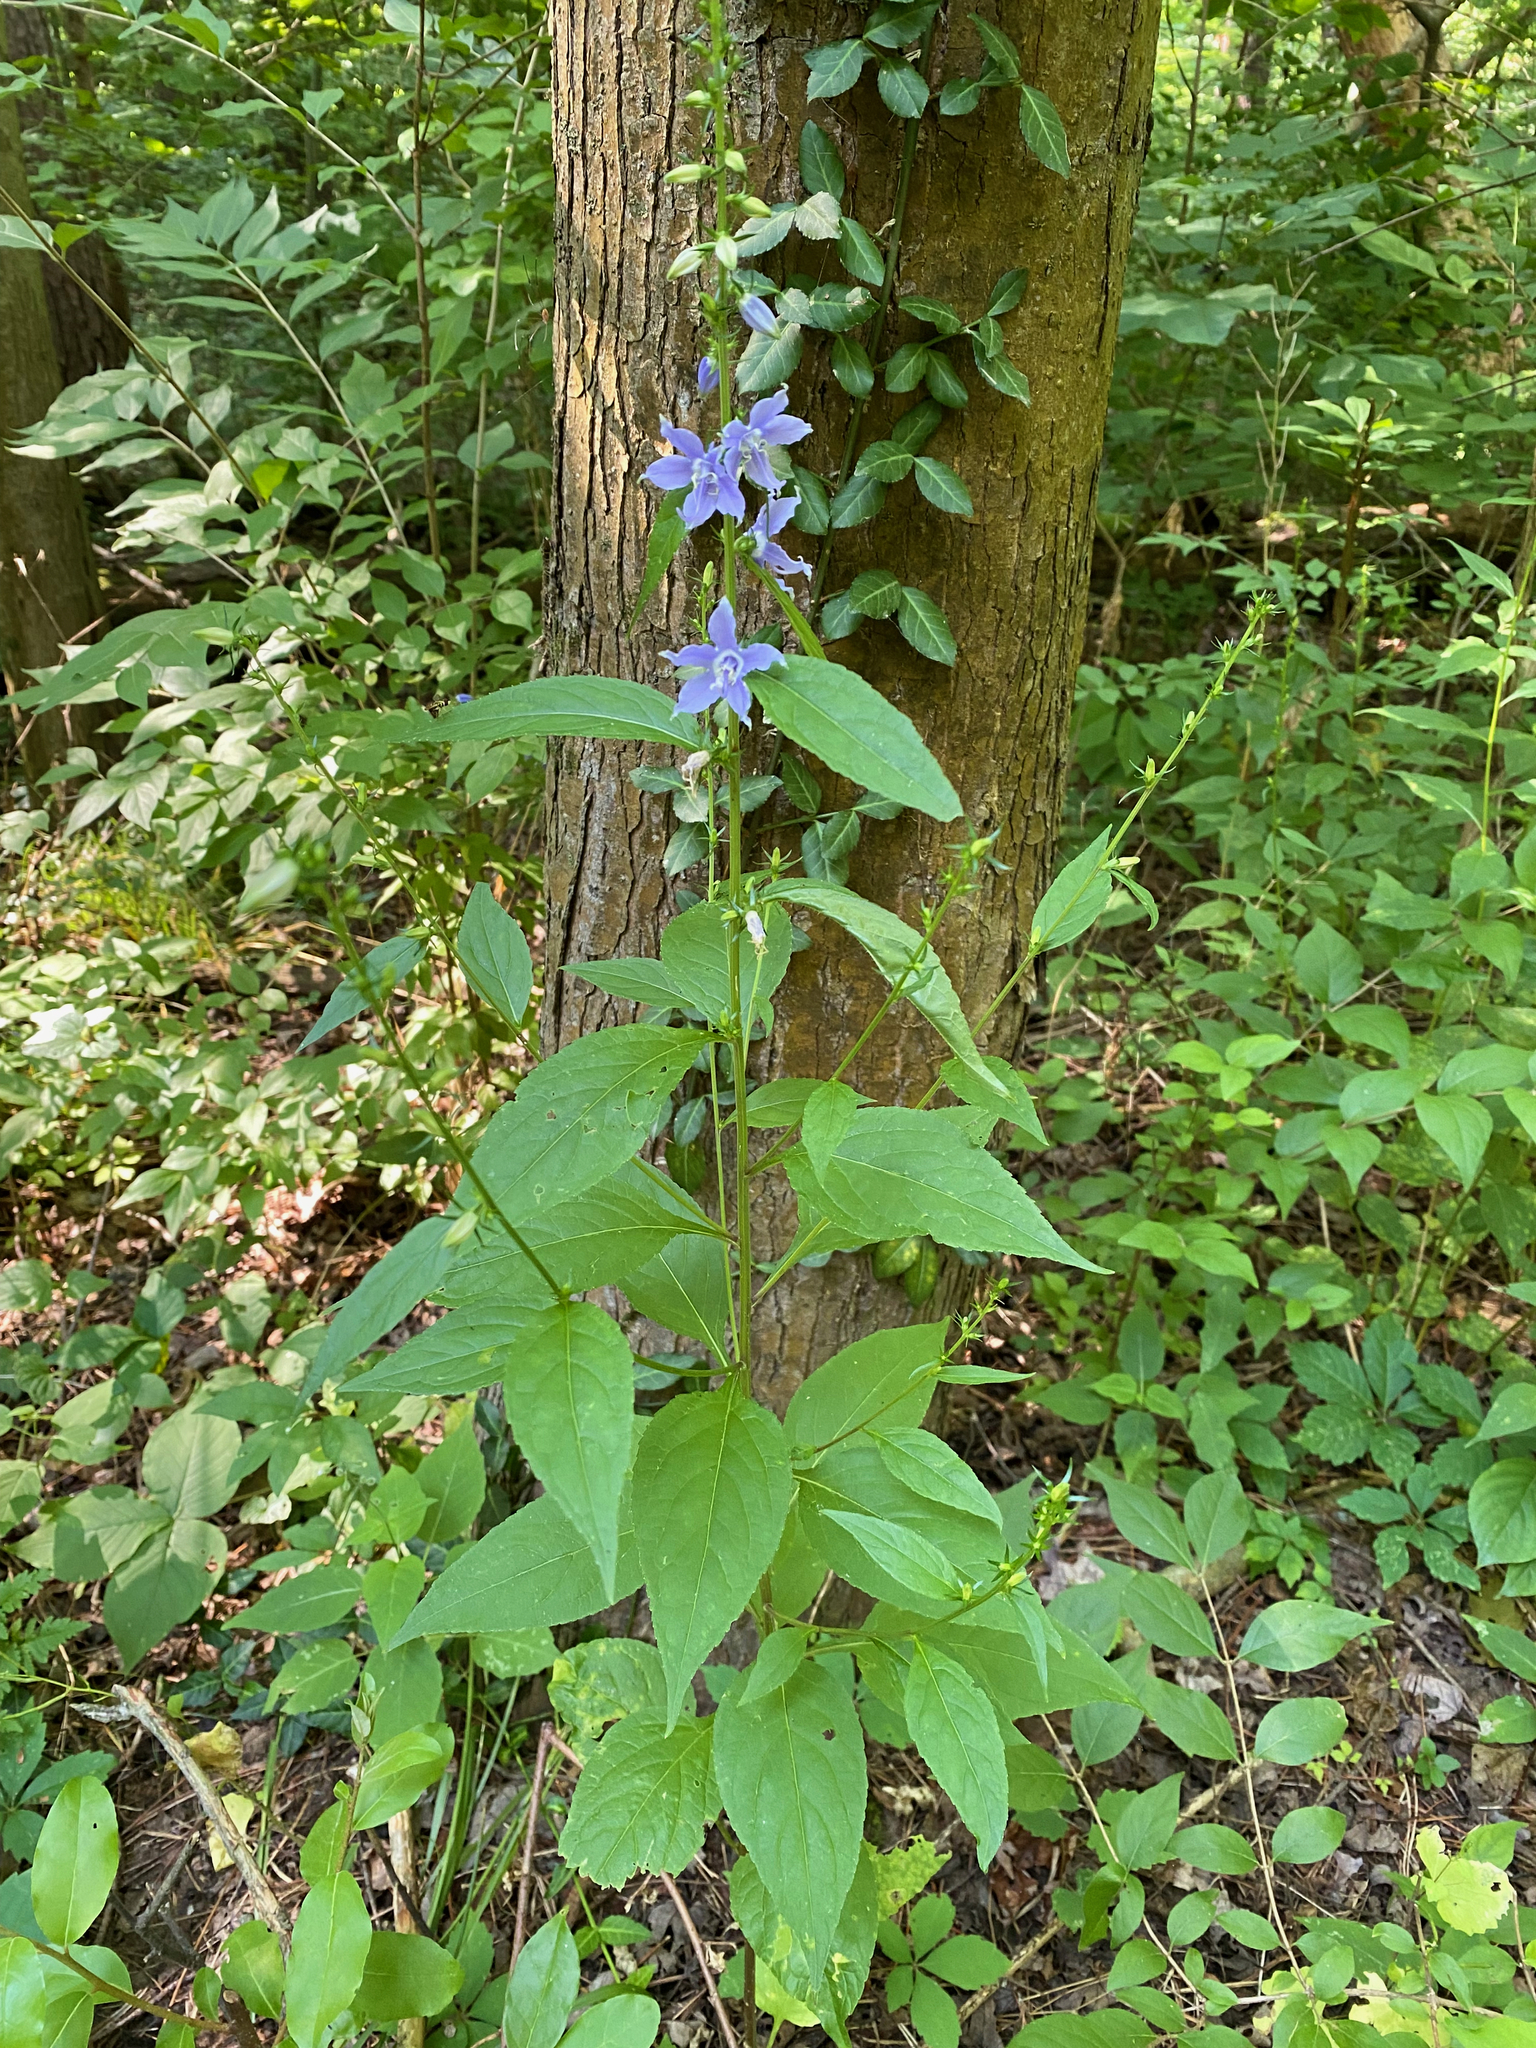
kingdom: Plantae
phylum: Tracheophyta
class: Magnoliopsida
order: Asterales
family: Campanulaceae
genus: Campanulastrum
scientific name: Campanulastrum americanum
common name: American bellflower
